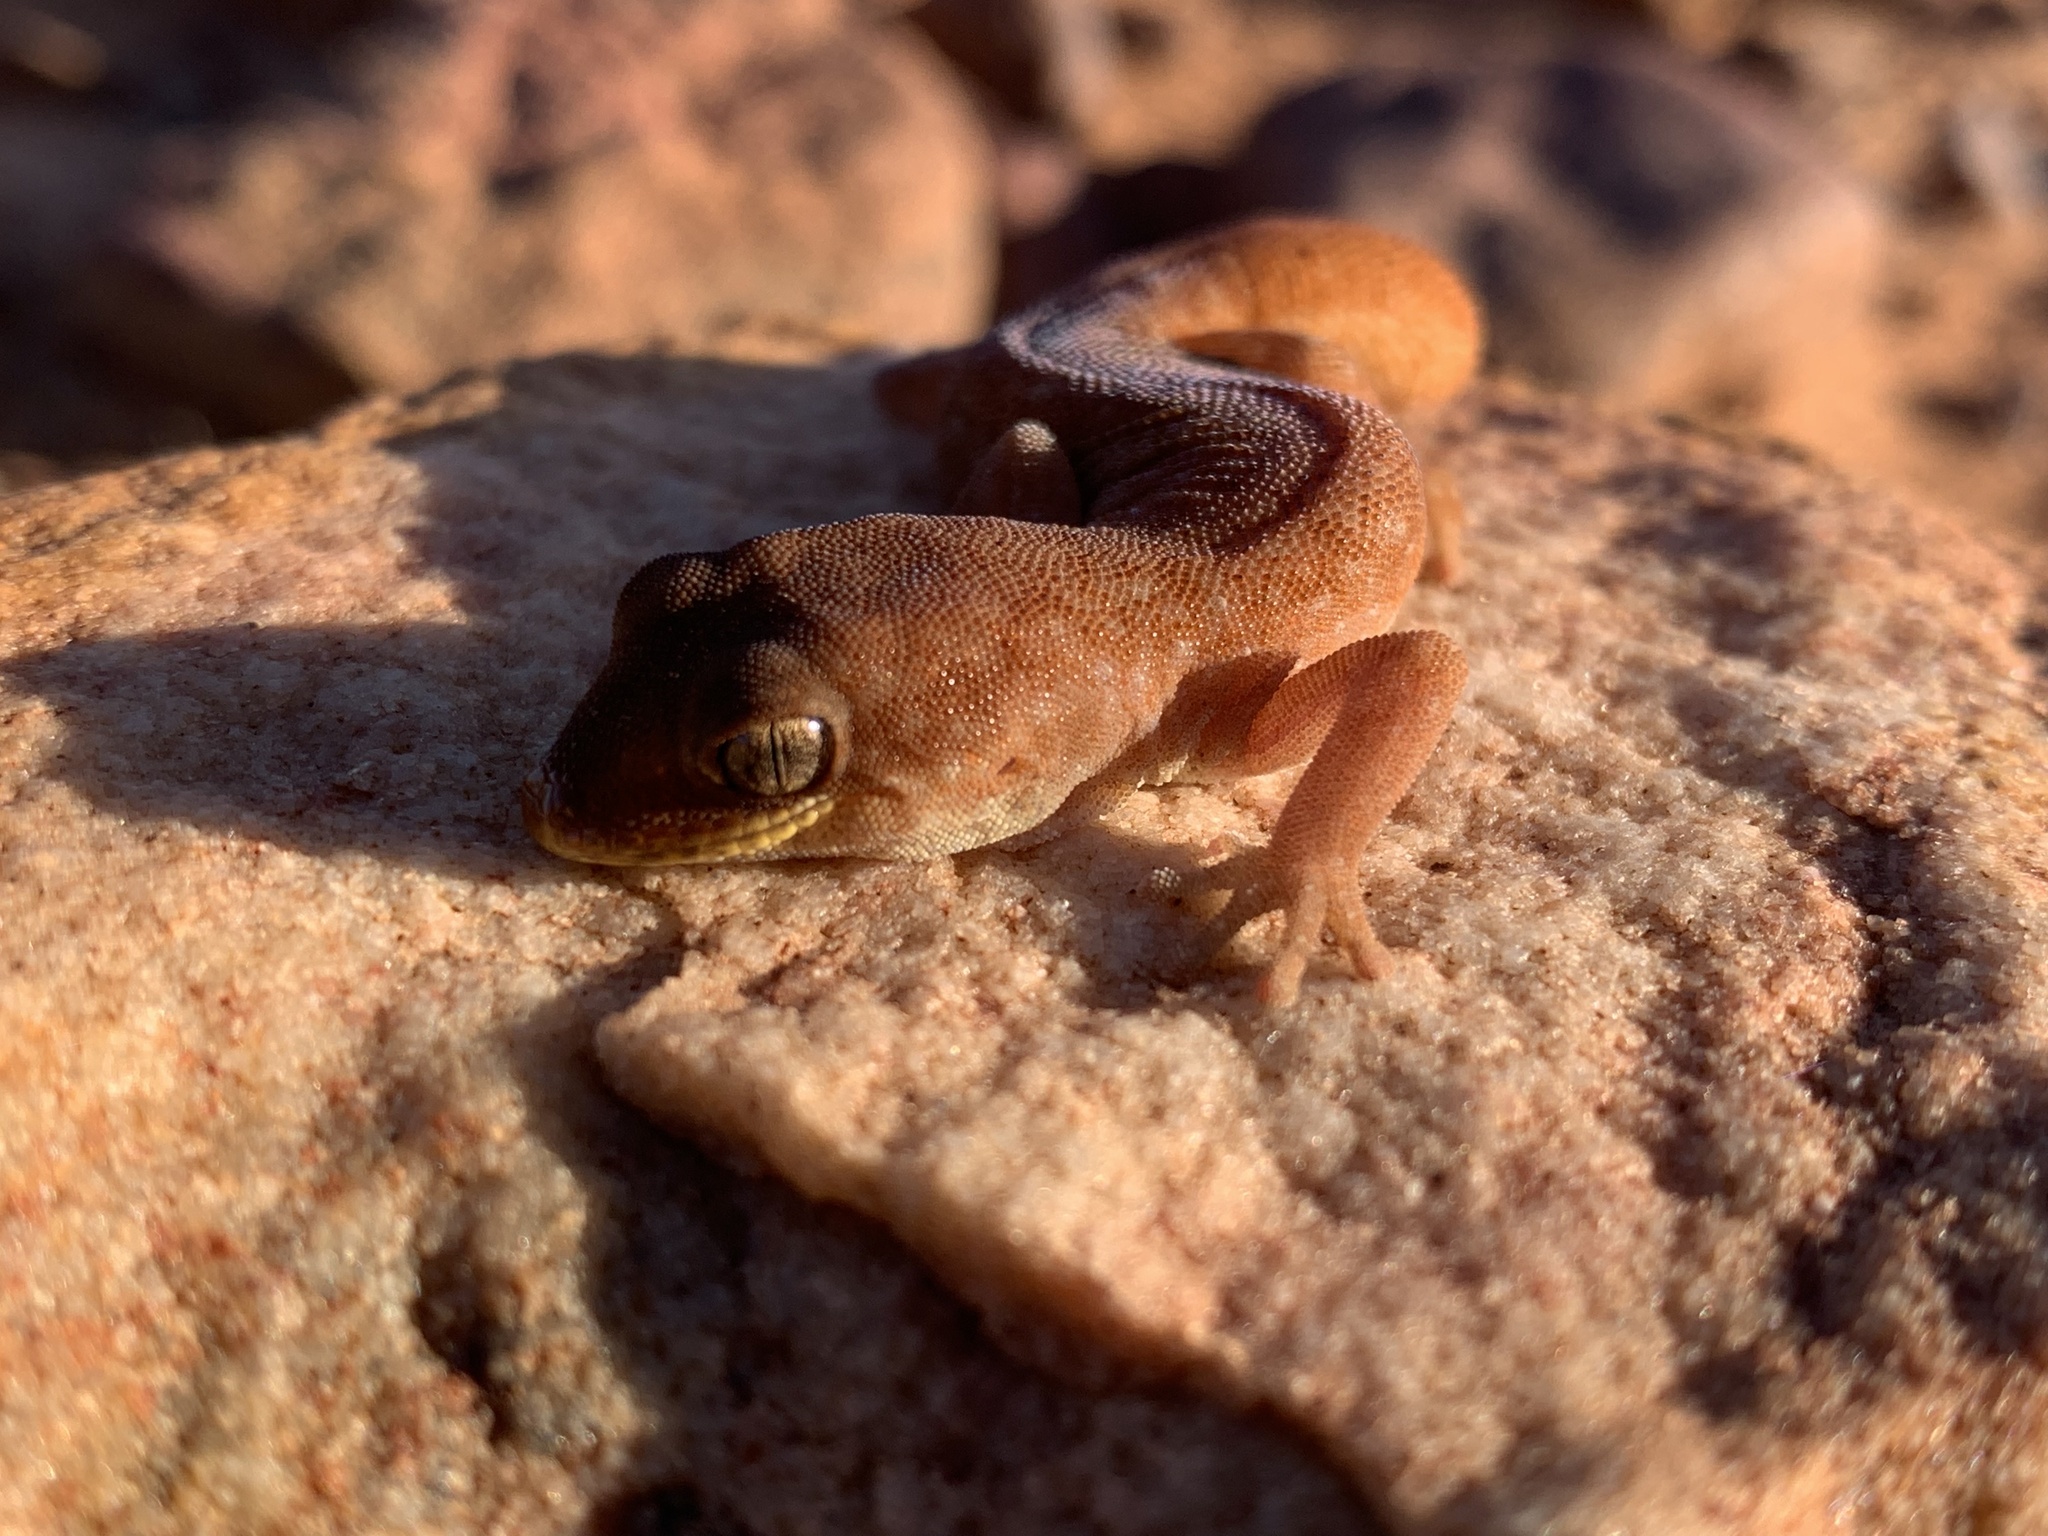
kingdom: Animalia
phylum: Chordata
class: Squamata
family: Diplodactylidae
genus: Diplodactylus
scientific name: Diplodactylus conspicillatus
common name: Burrow-plug gecko
